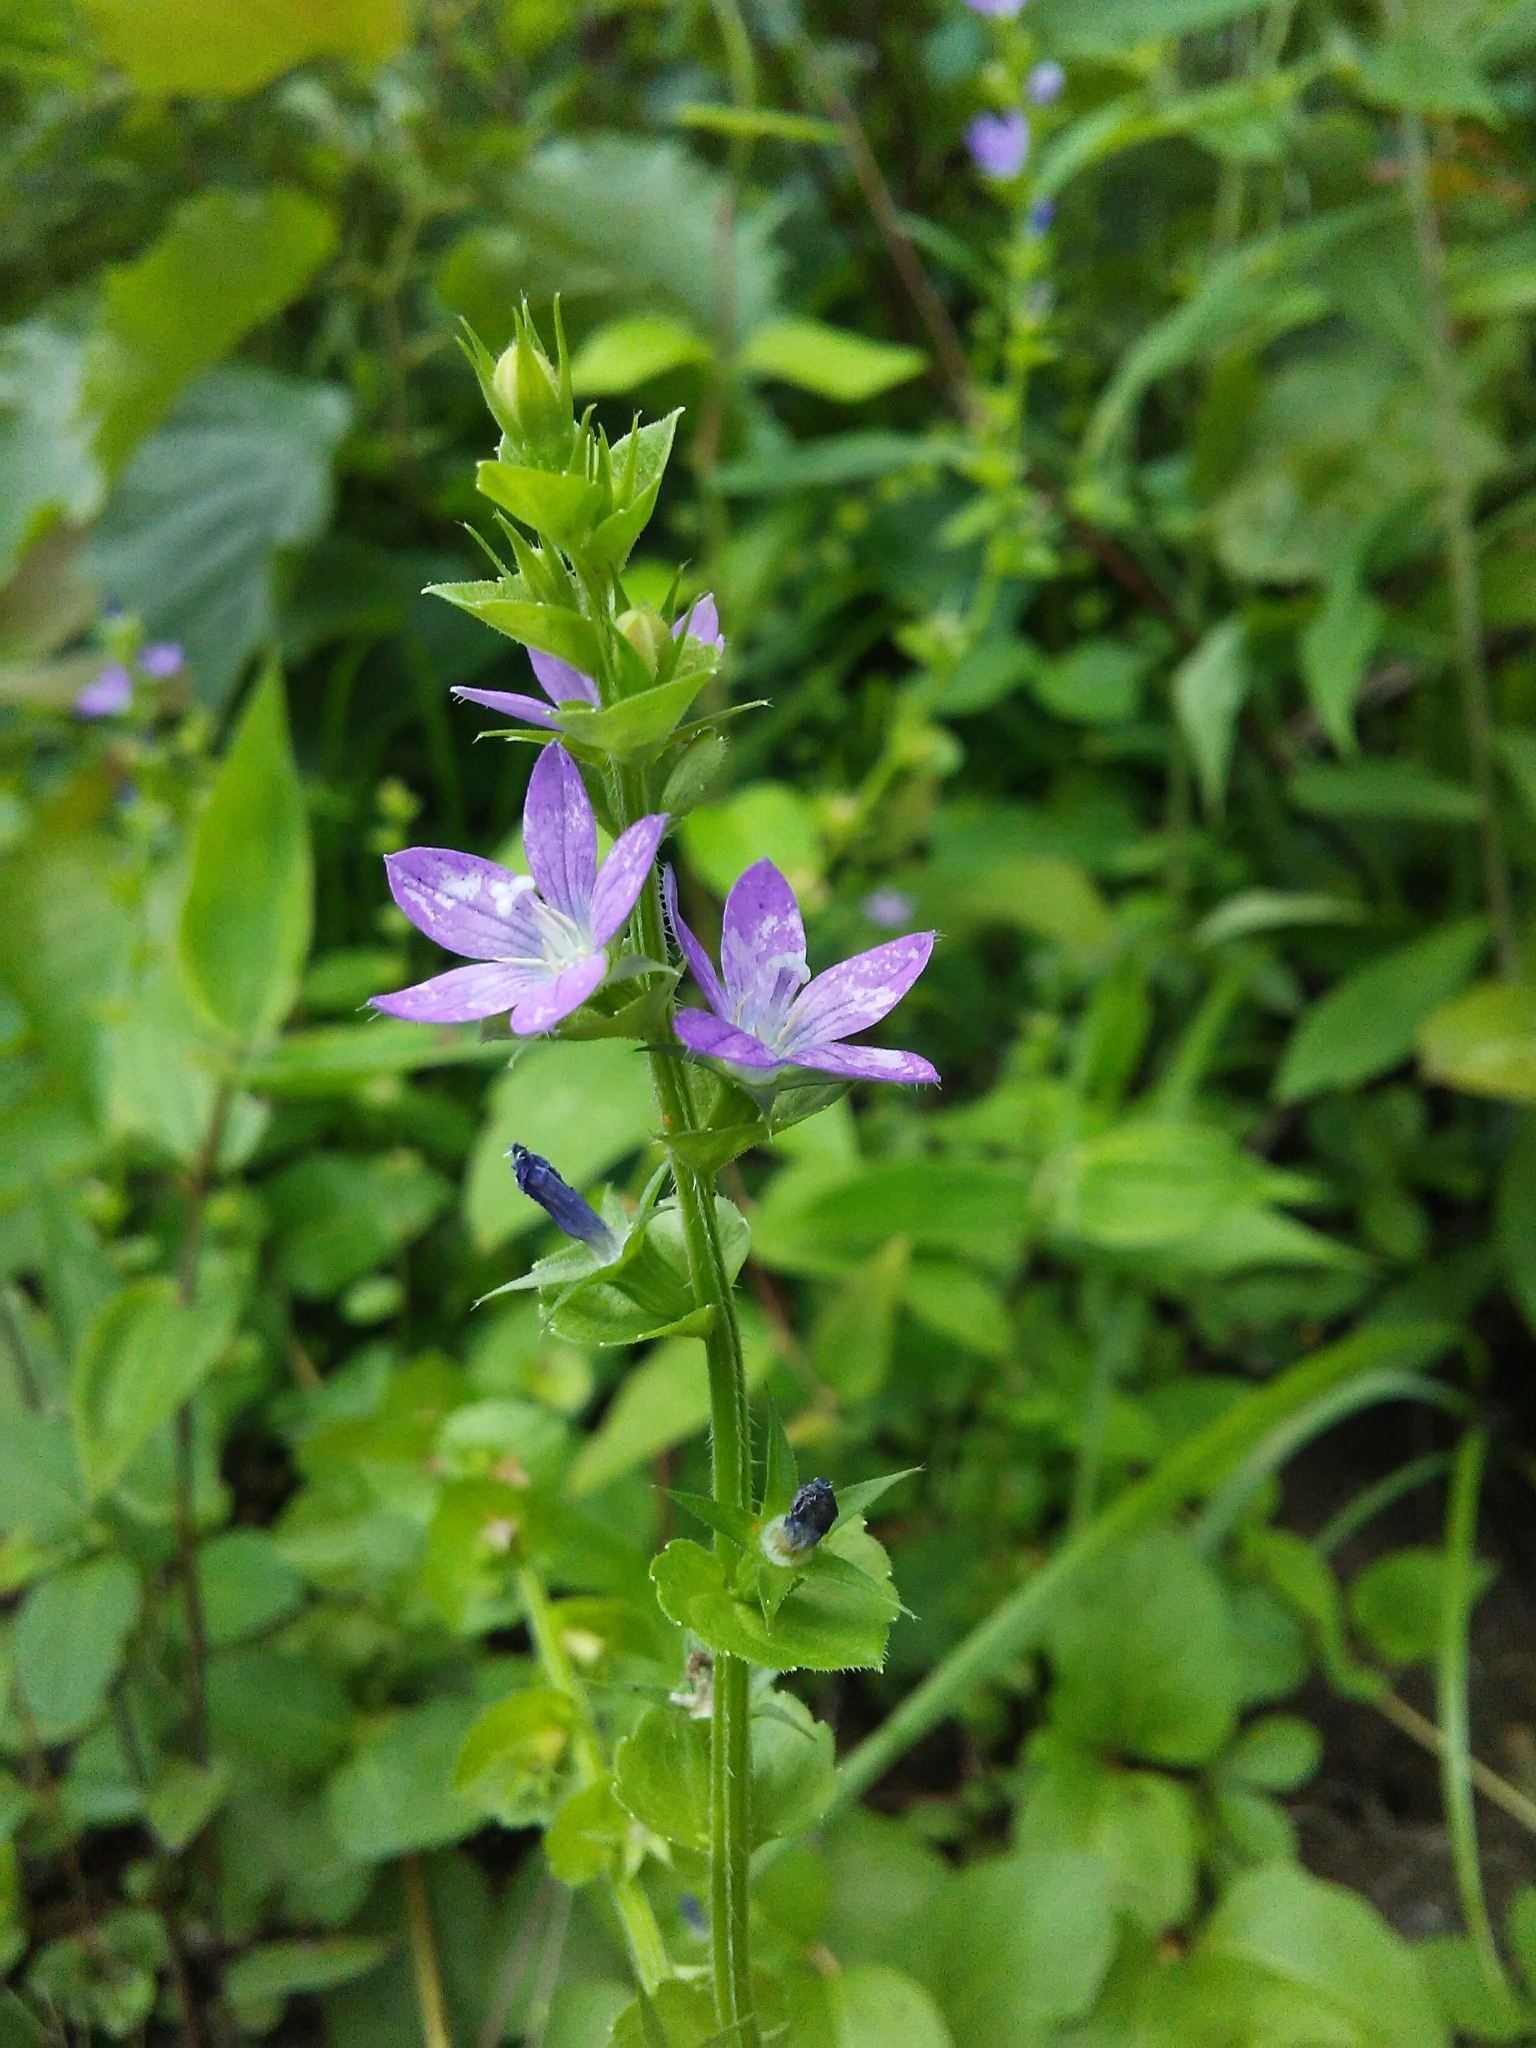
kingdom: Plantae
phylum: Tracheophyta
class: Magnoliopsida
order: Asterales
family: Campanulaceae
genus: Triodanis
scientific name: Triodanis perfoliata
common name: Clasping venus' looking-glass
